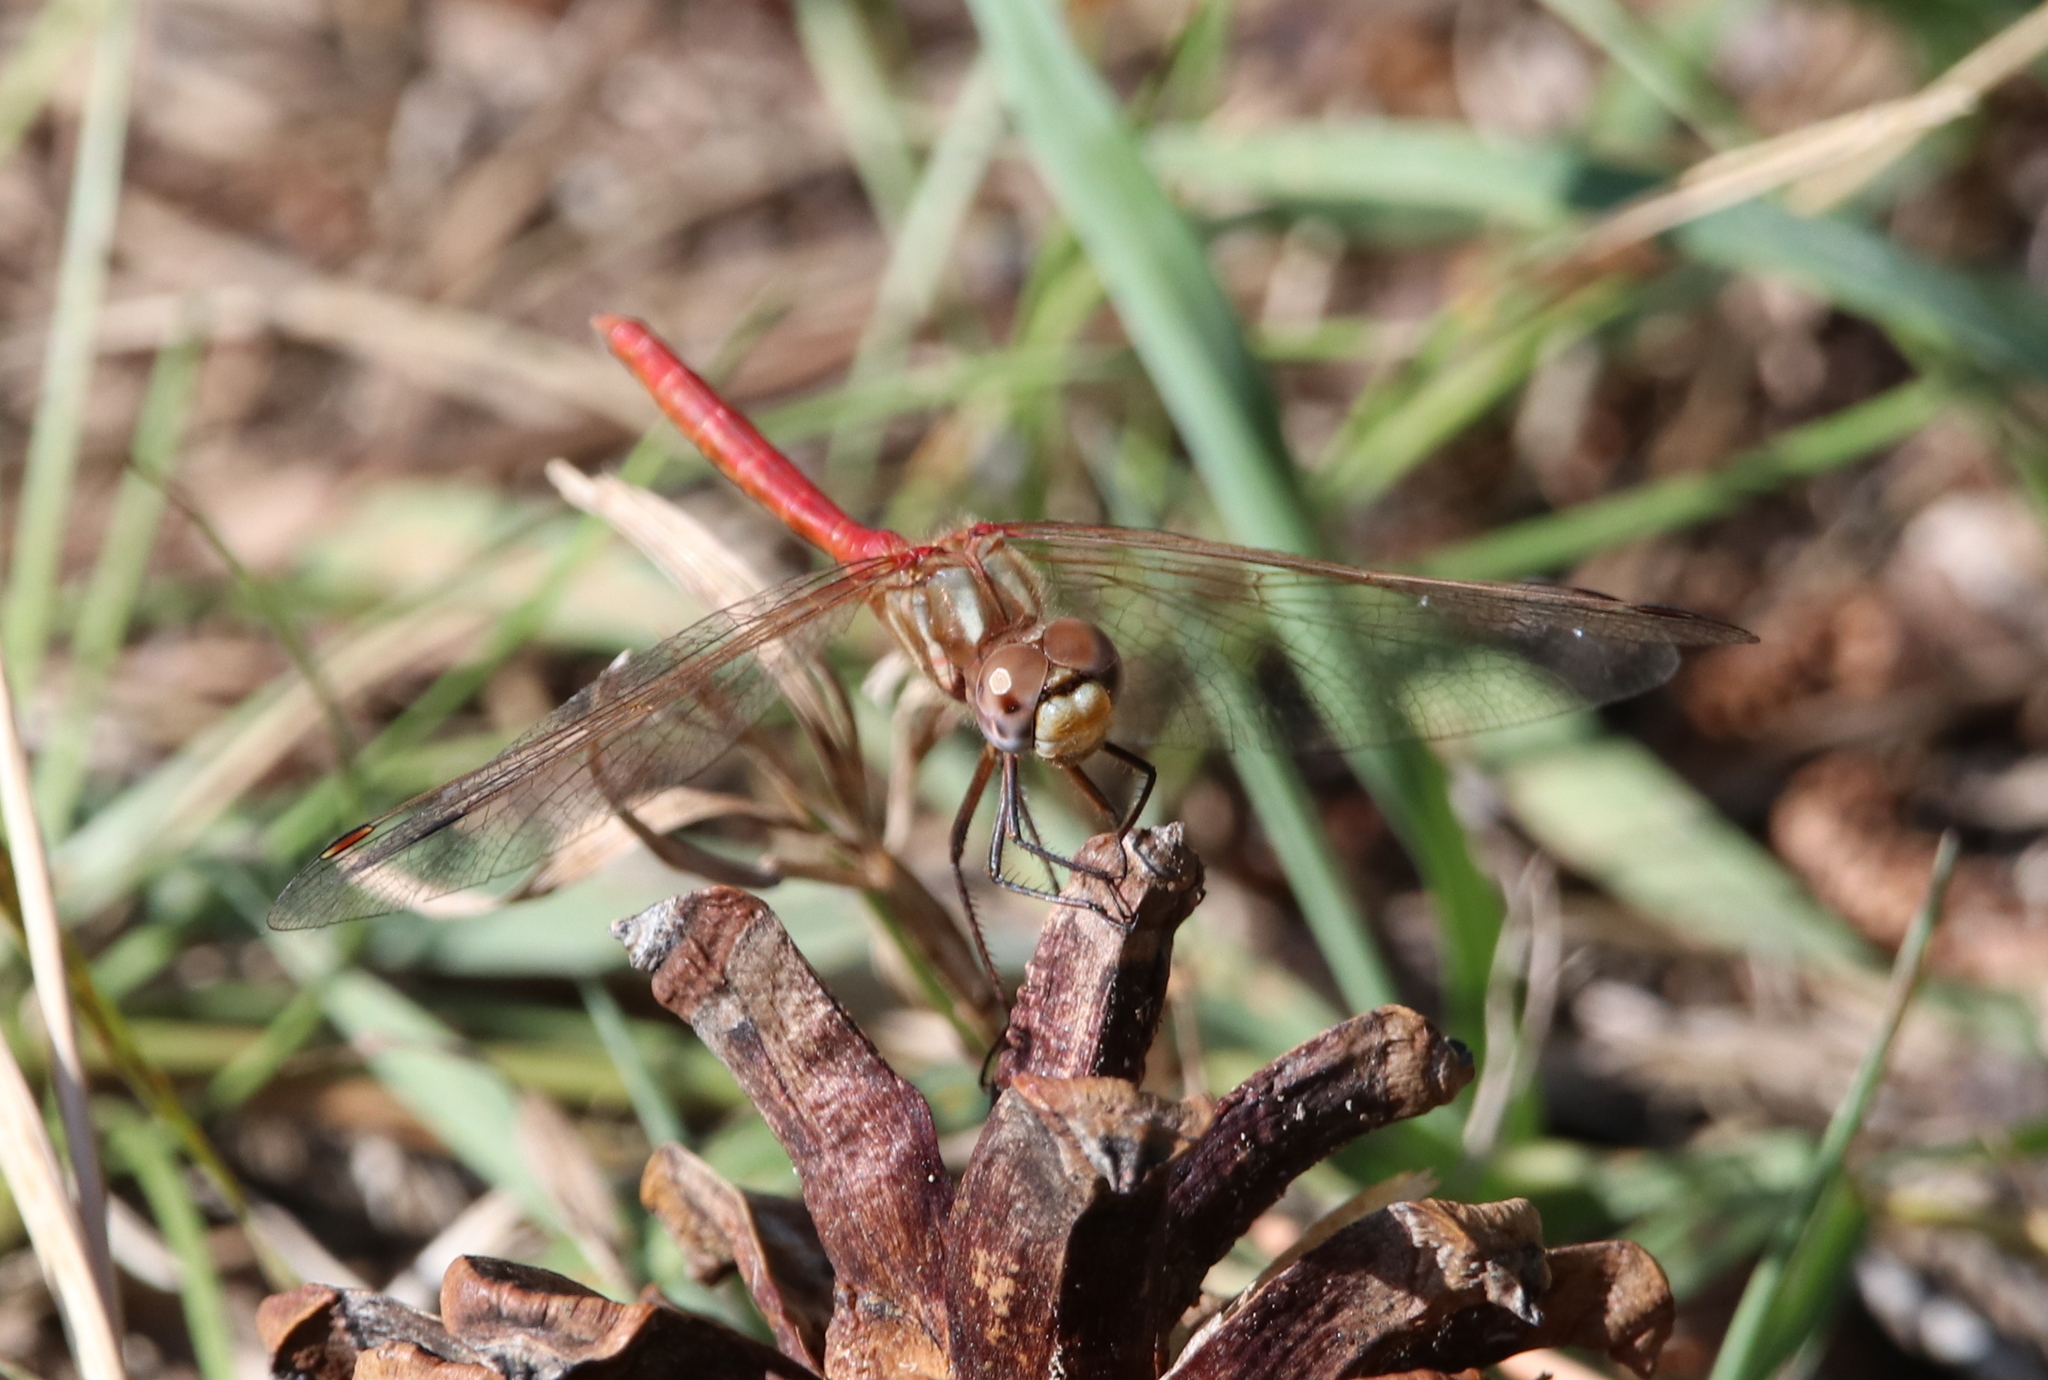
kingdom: Animalia
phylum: Arthropoda
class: Insecta
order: Odonata
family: Libellulidae
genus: Sympetrum
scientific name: Sympetrum pallipes
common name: Striped meadowhawk
